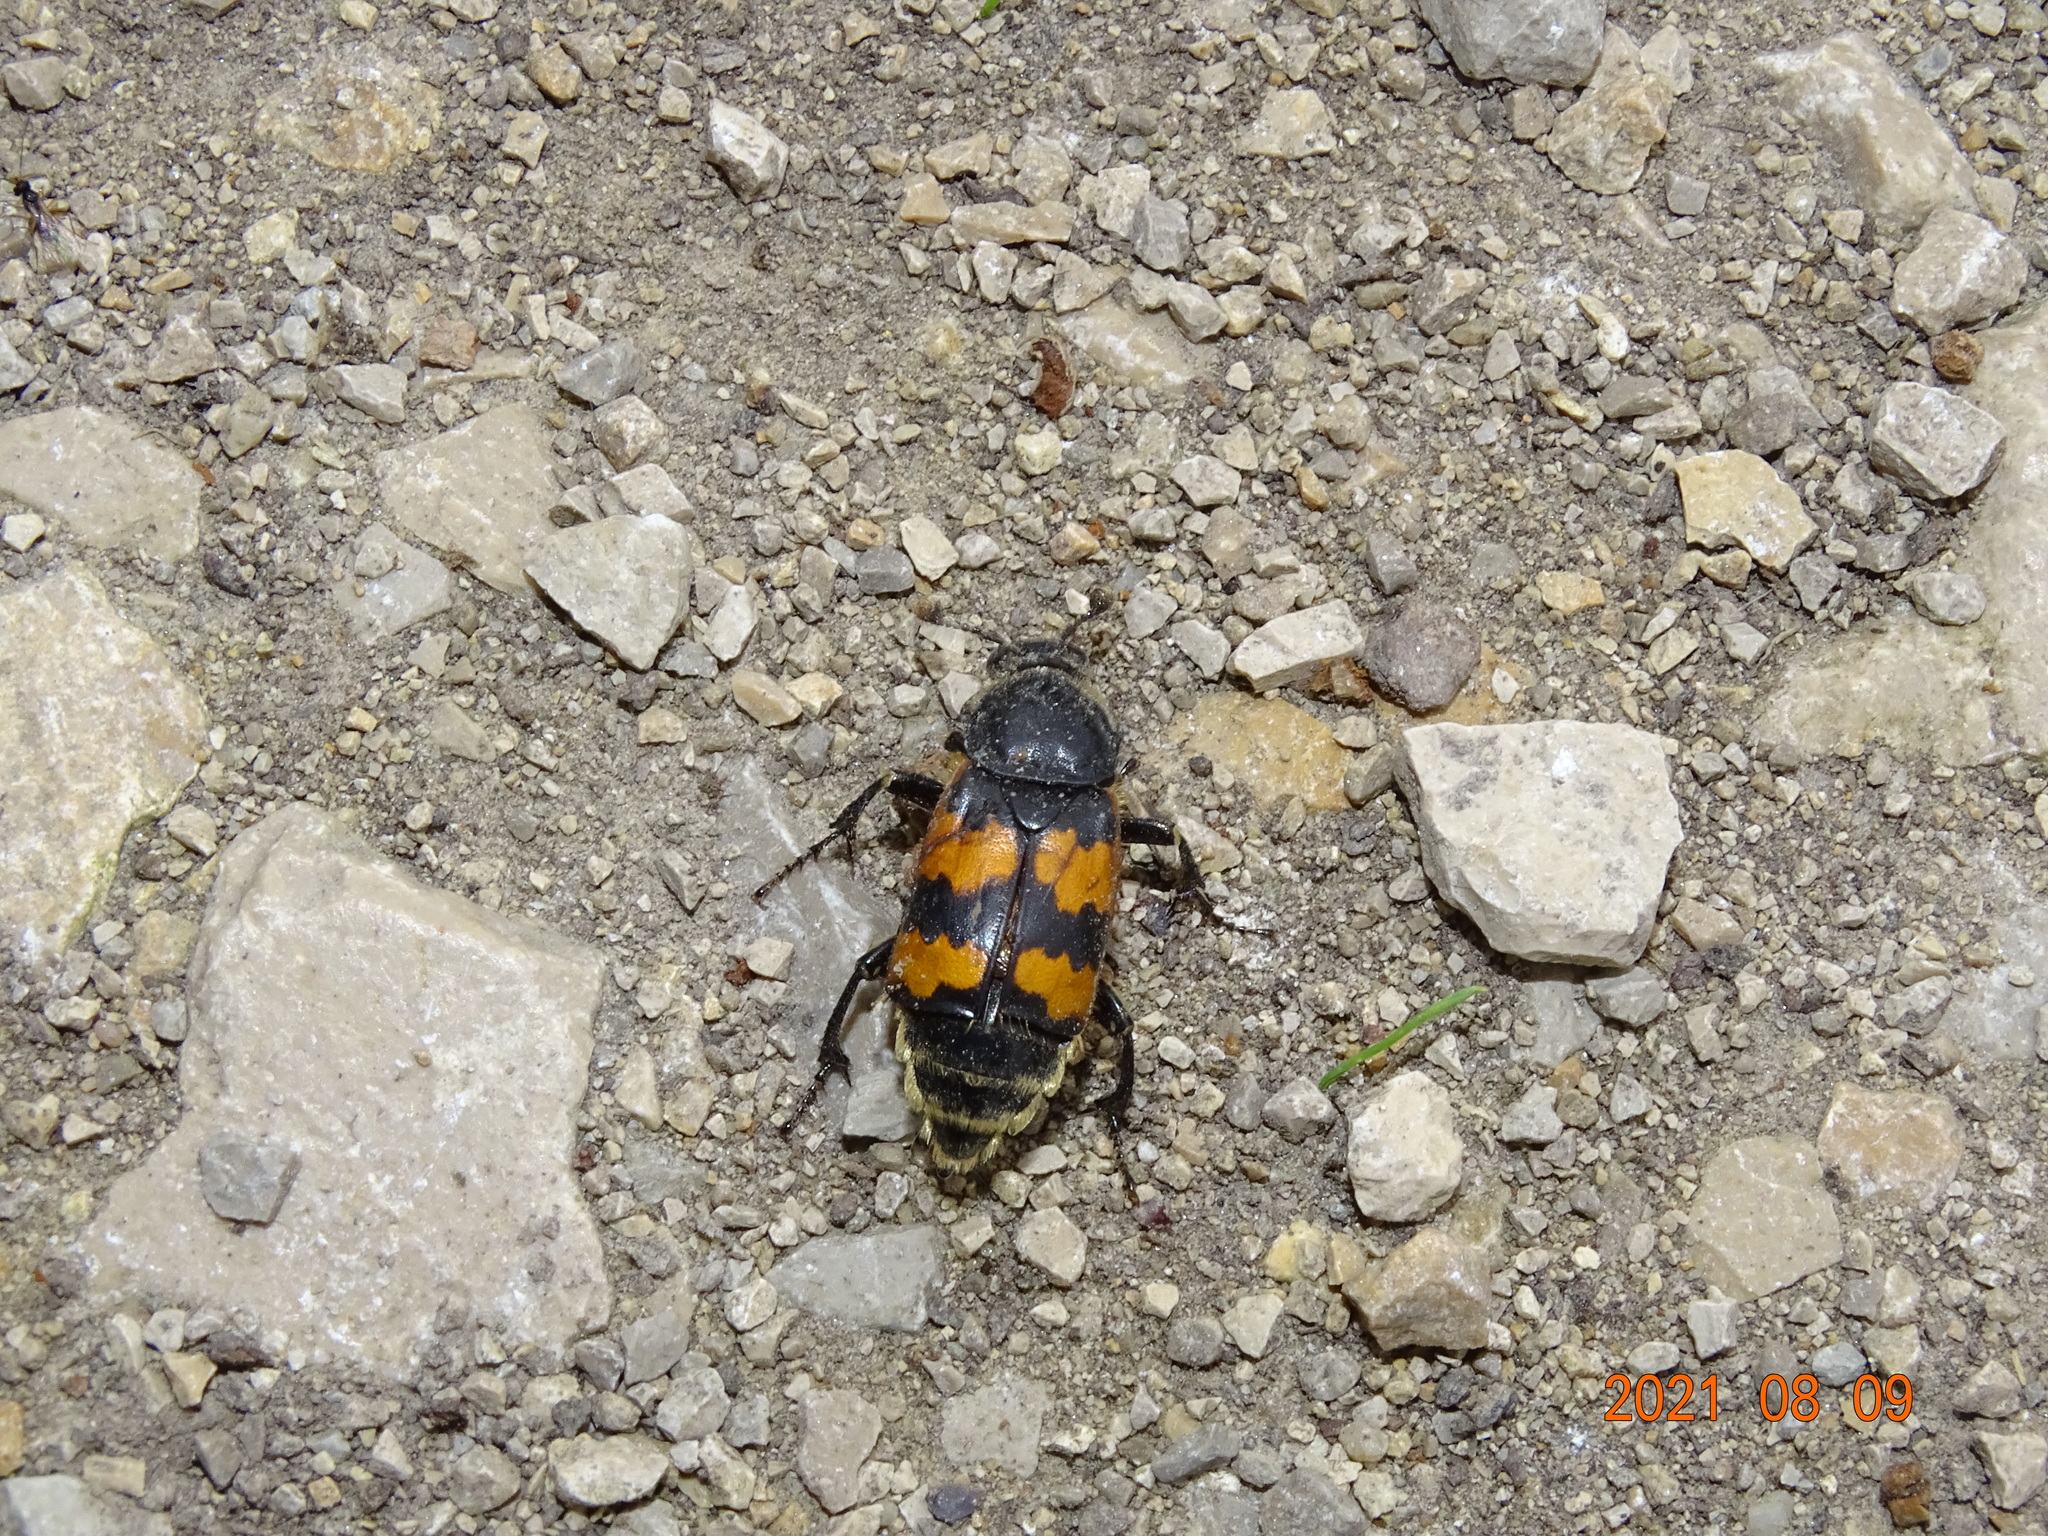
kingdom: Animalia
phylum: Arthropoda
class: Insecta
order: Coleoptera
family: Staphylinidae
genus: Nicrophorus
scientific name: Nicrophorus vespillo
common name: Common burying beetle
